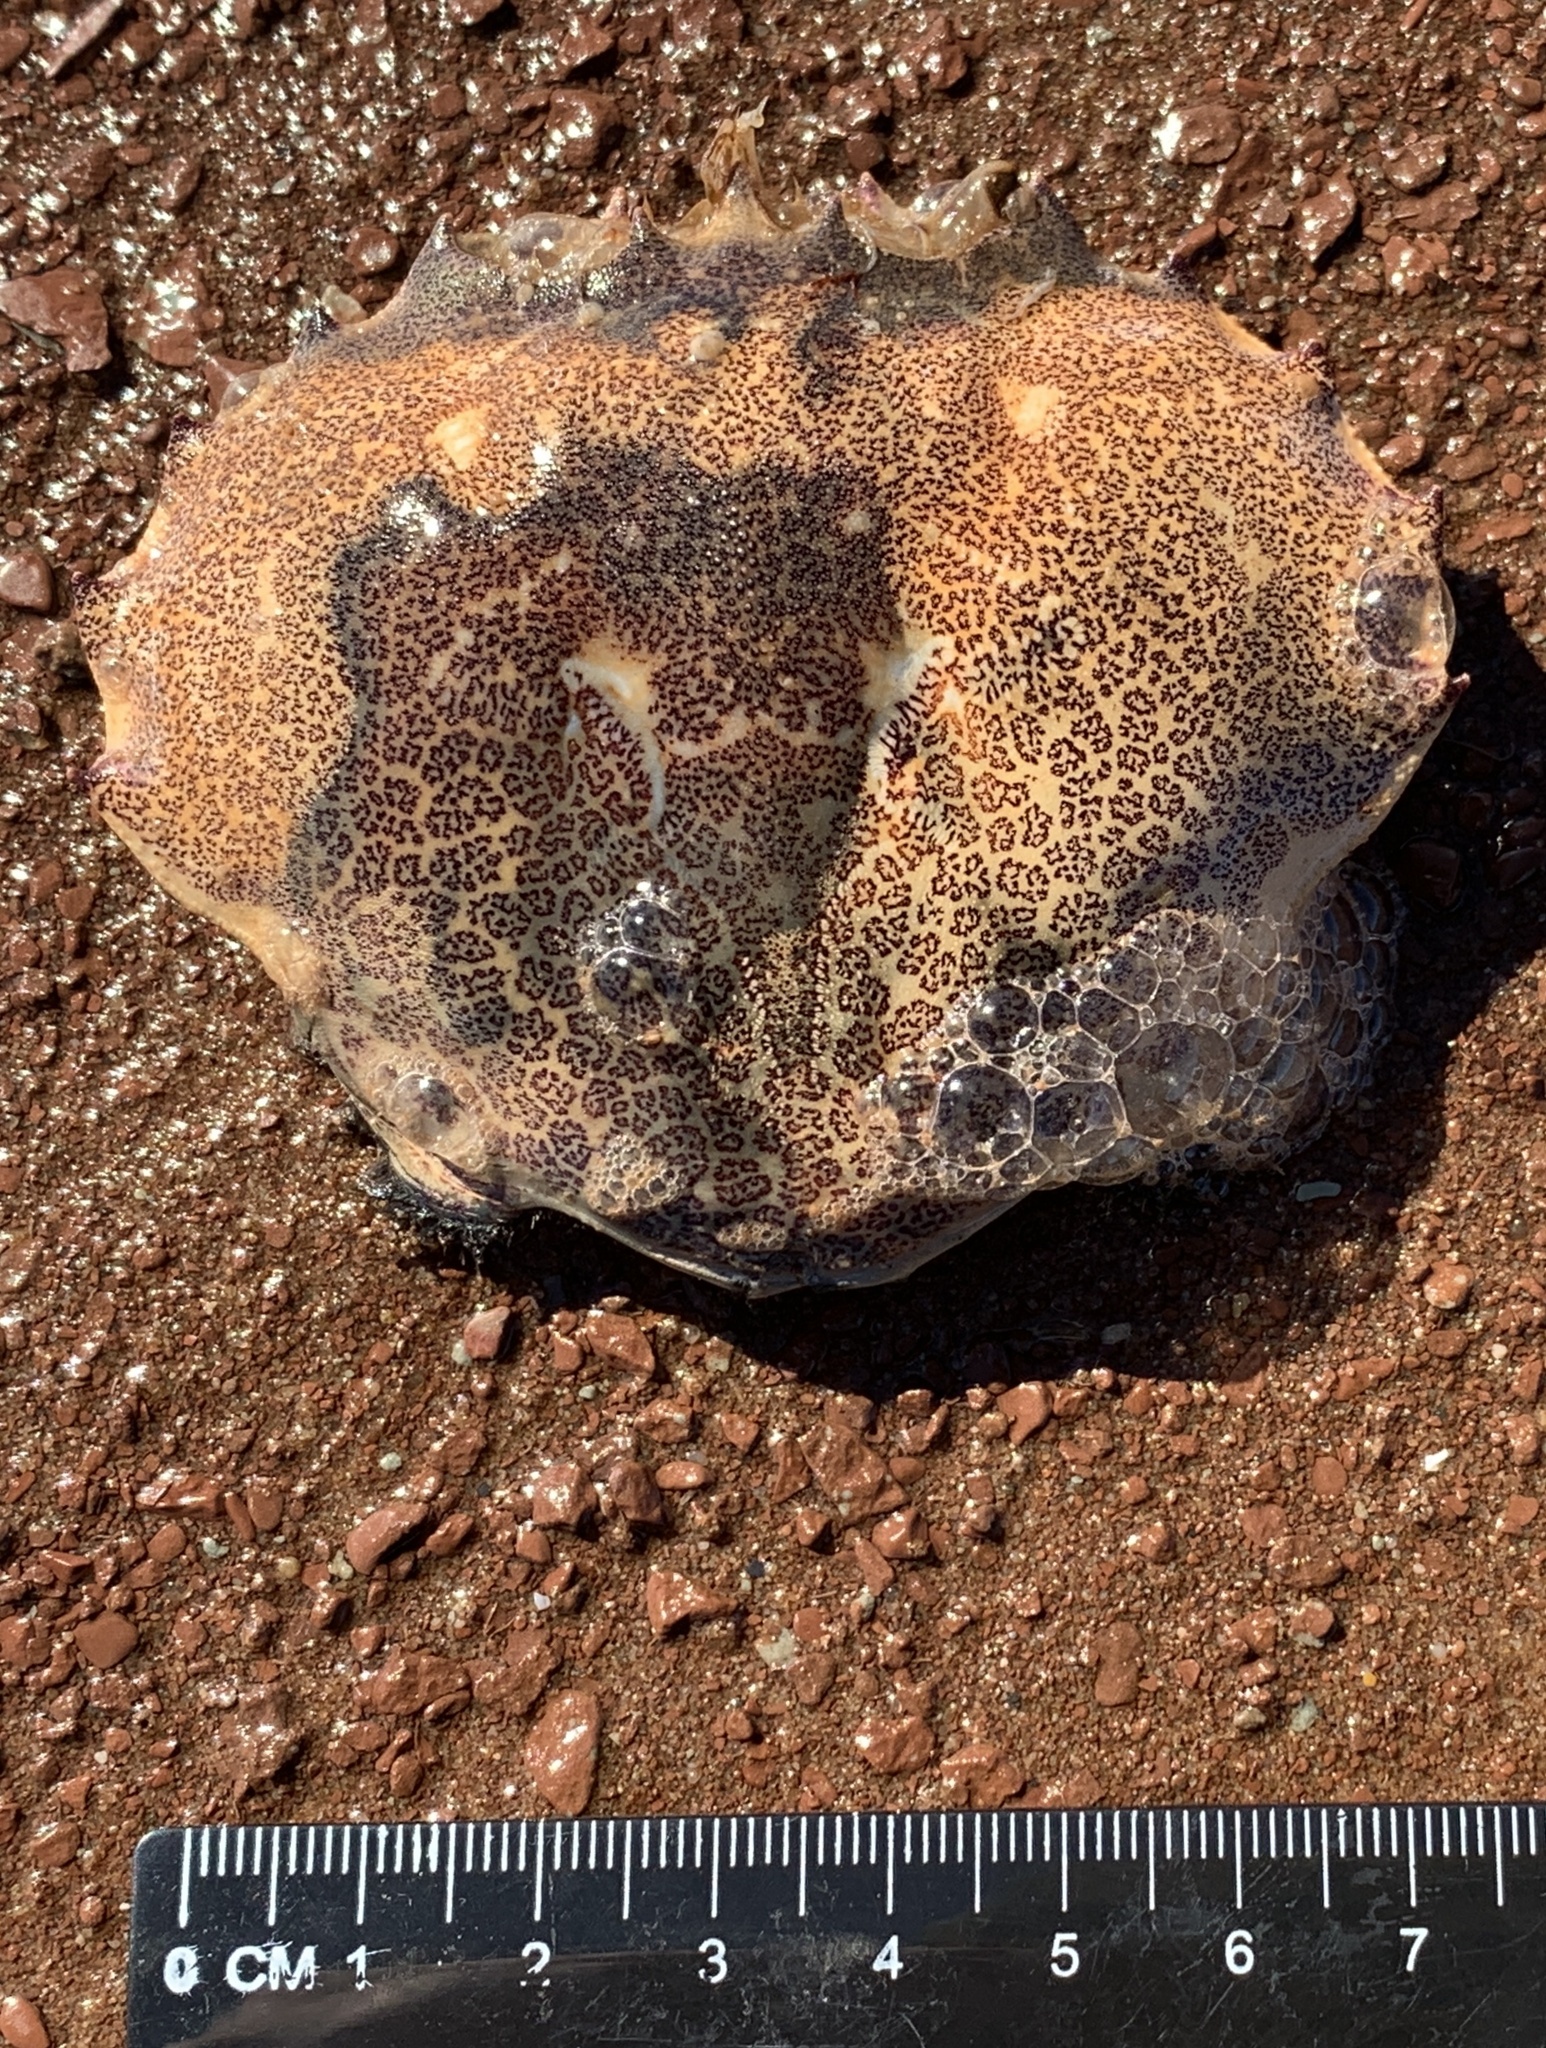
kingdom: Animalia
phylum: Arthropoda
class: Malacostraca
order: Decapoda
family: Ovalipidae
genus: Ovalipes
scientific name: Ovalipes ocellatus
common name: Lady crab
